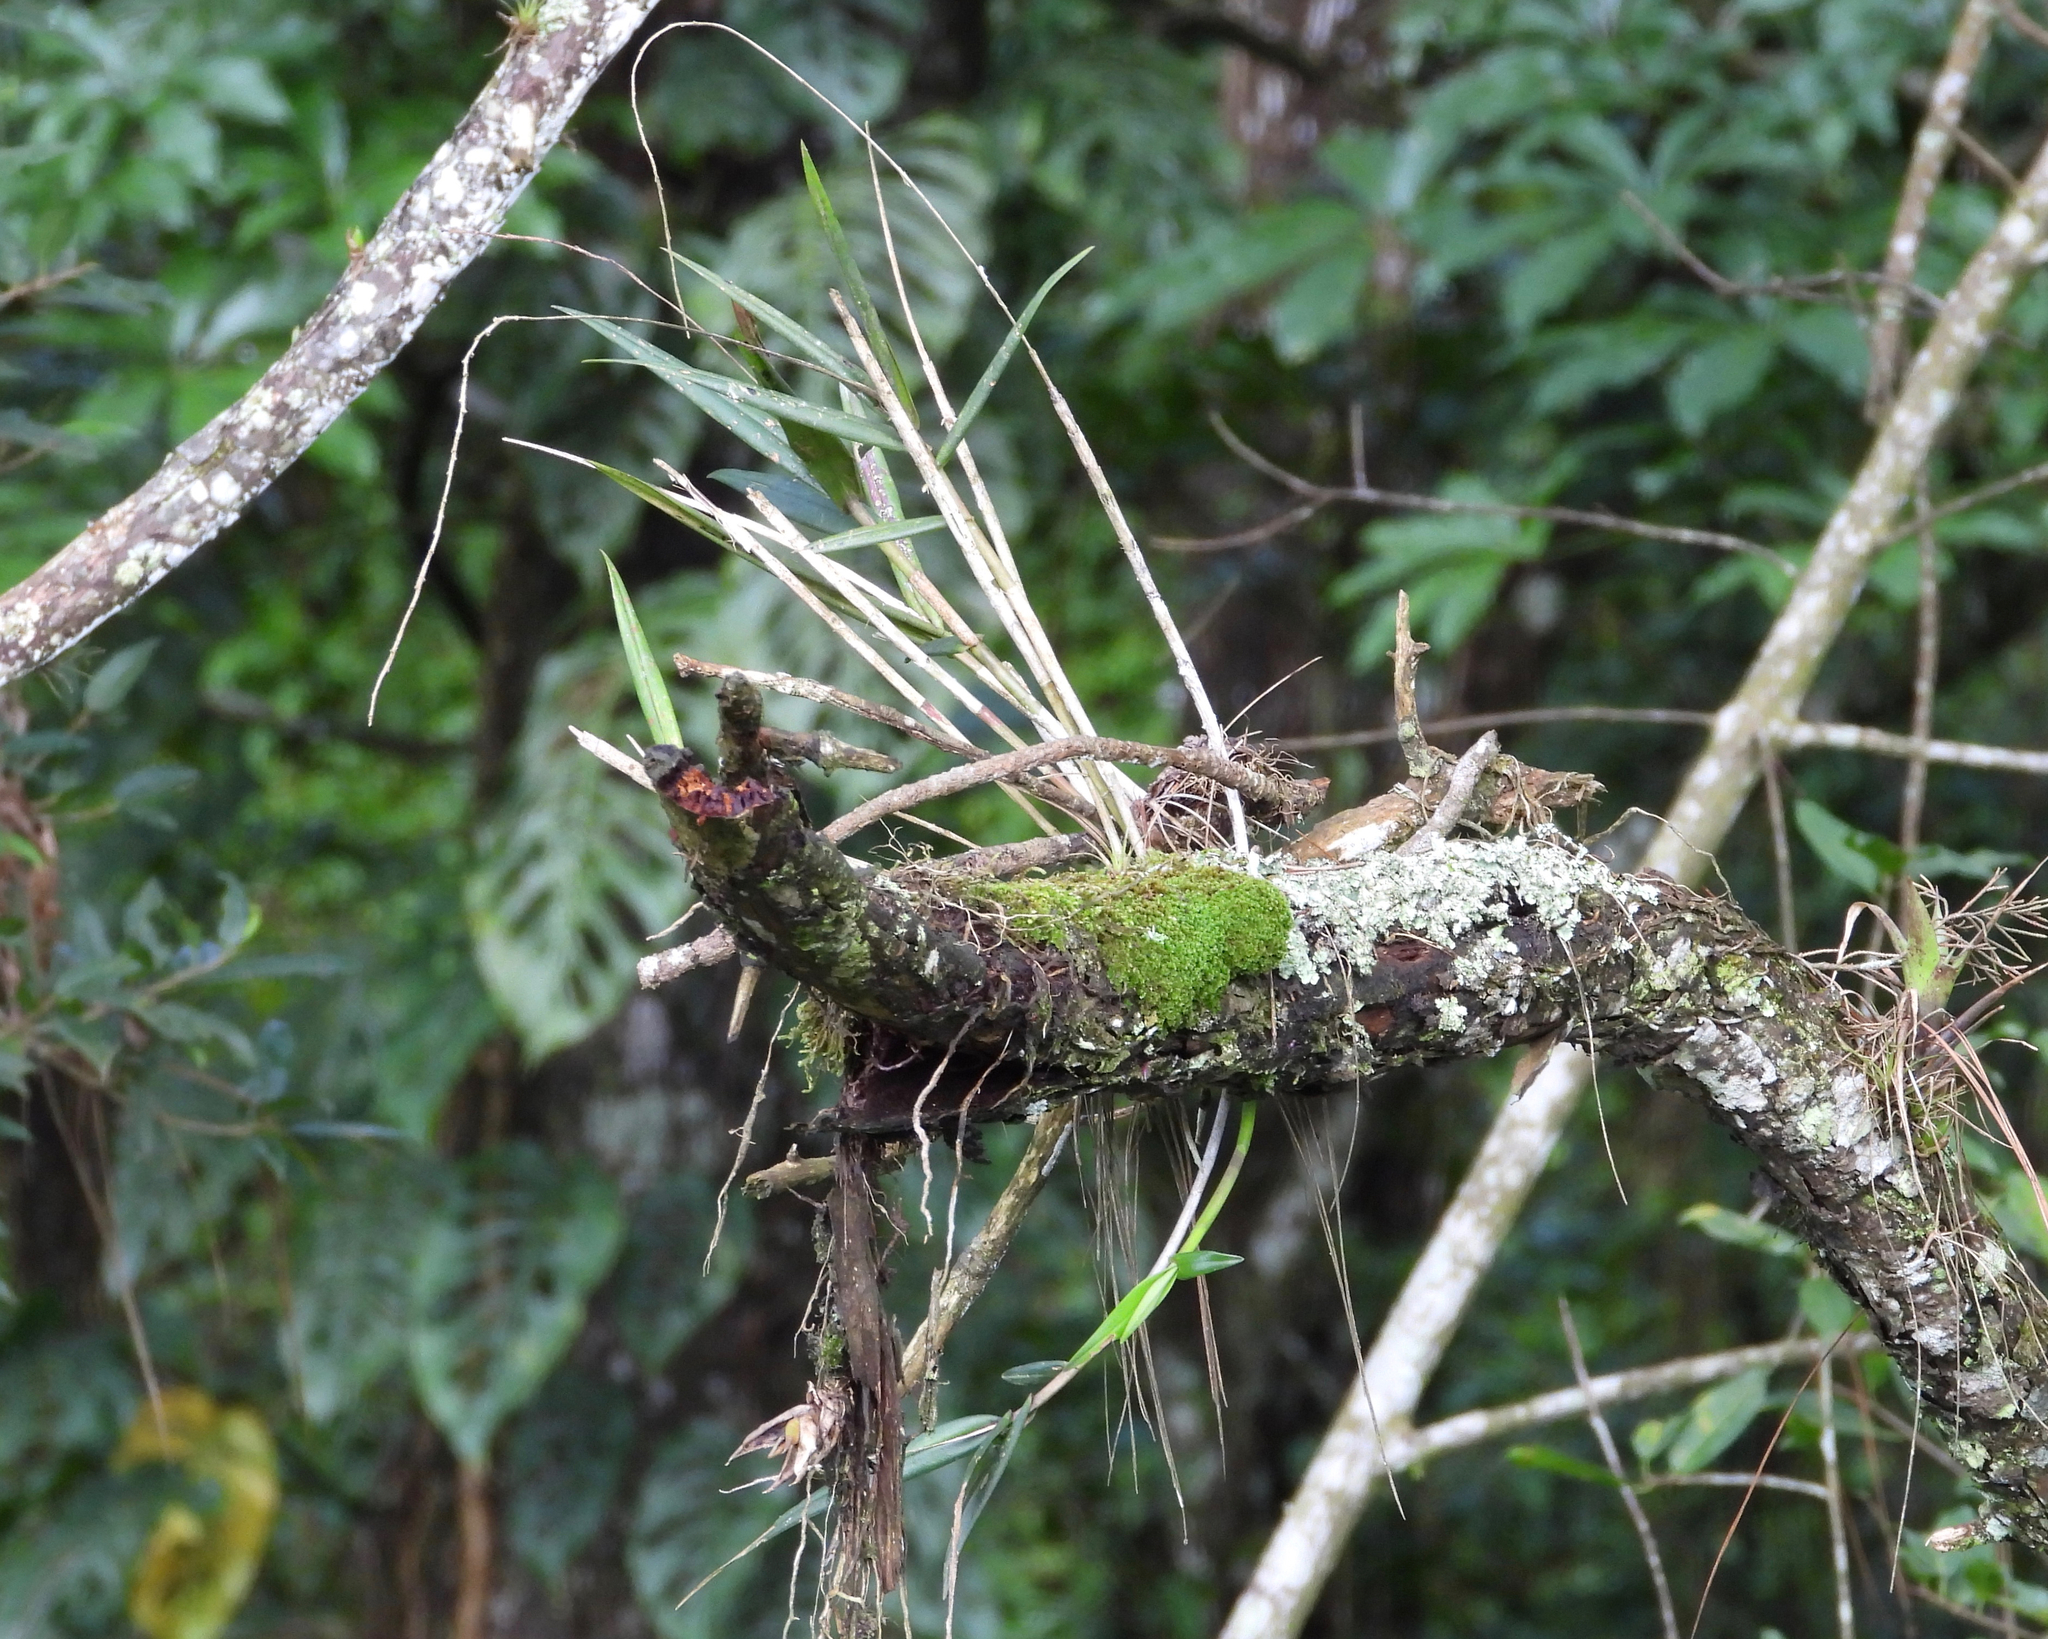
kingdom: Plantae
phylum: Tracheophyta
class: Liliopsida
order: Asparagales
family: Orchidaceae
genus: Epidendrum
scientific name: Epidendrum laucheanum
